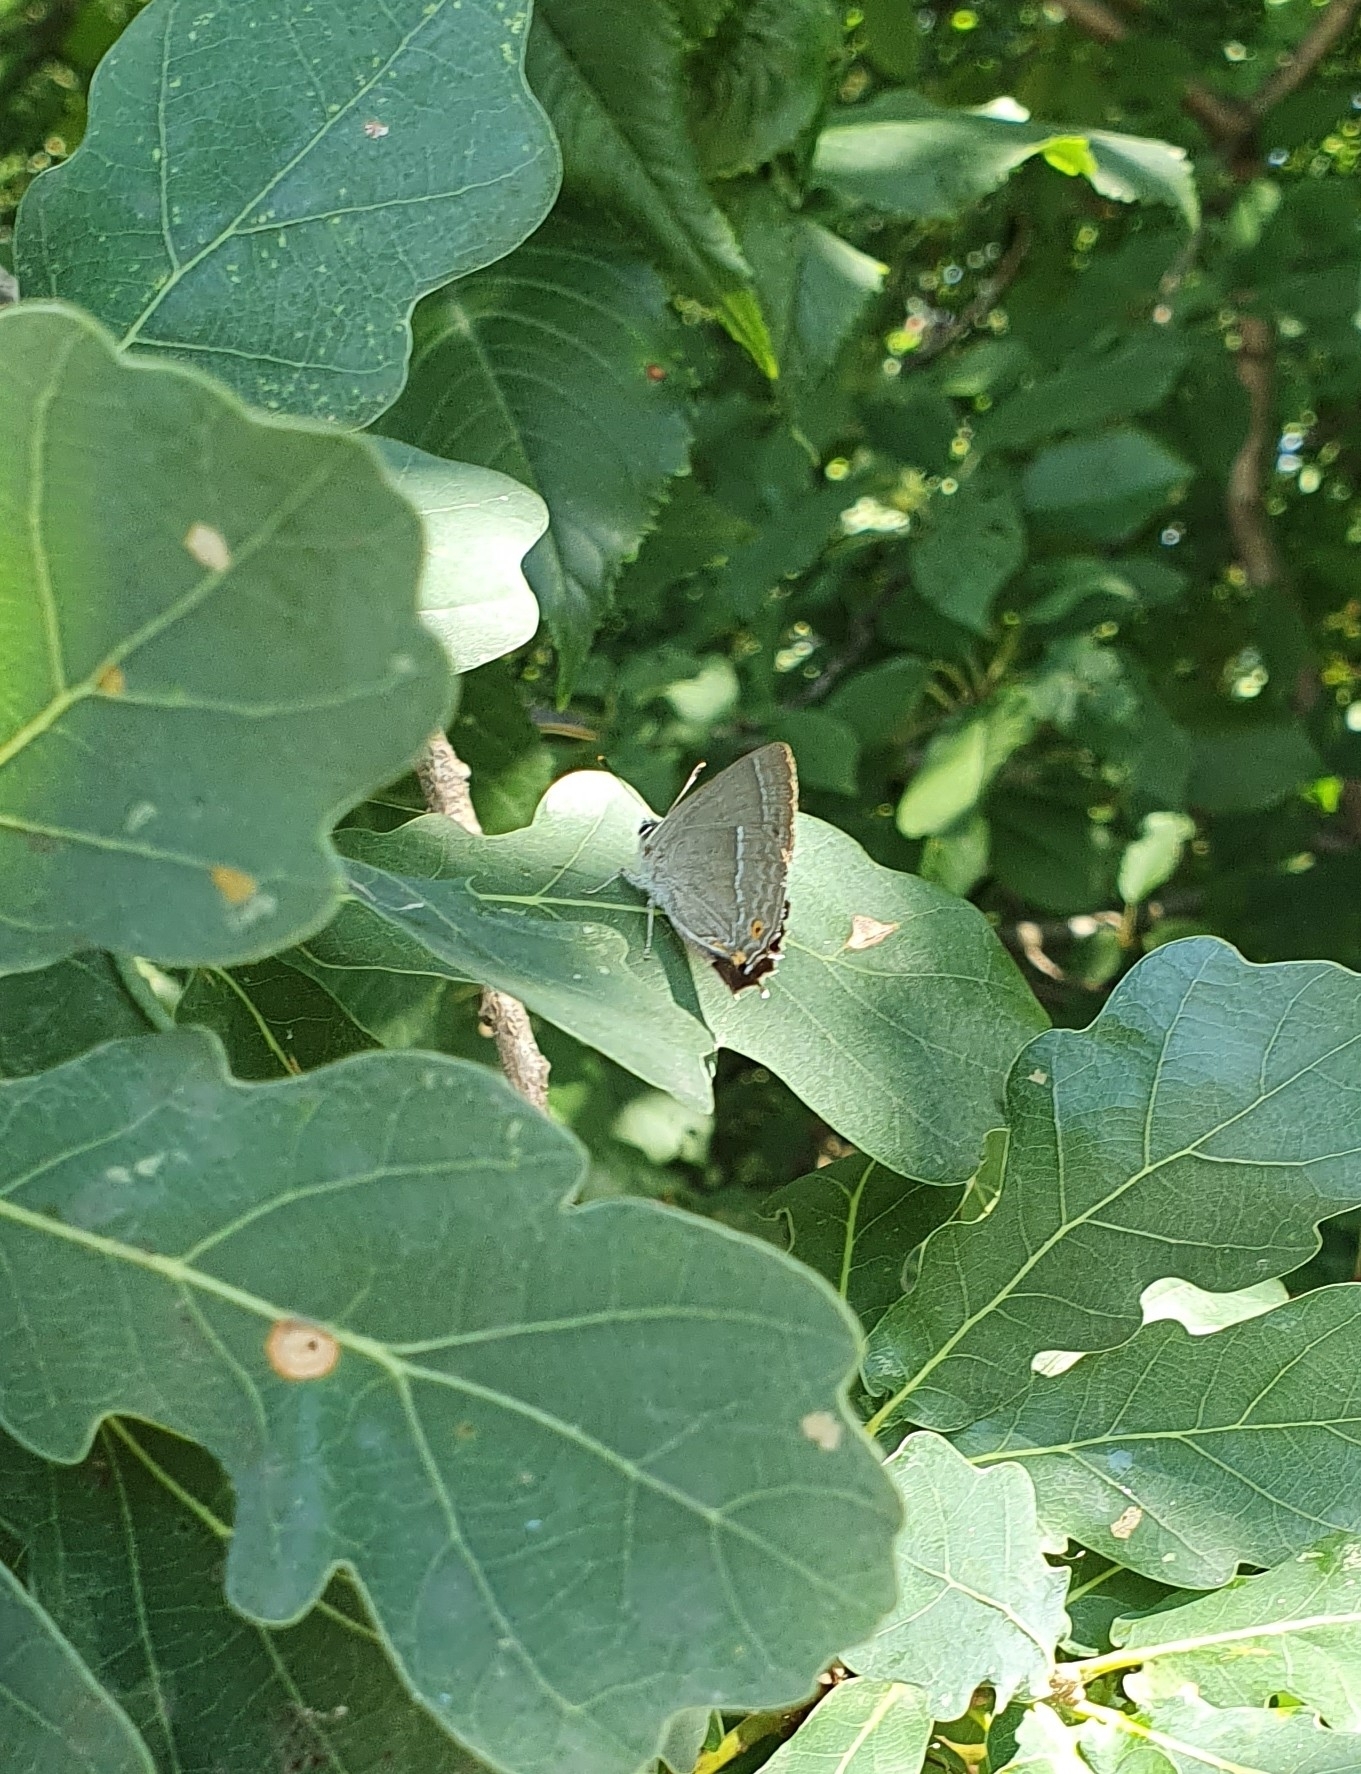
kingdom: Animalia
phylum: Arthropoda
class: Insecta
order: Lepidoptera
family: Lycaenidae
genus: Quercusia
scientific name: Quercusia quercus
